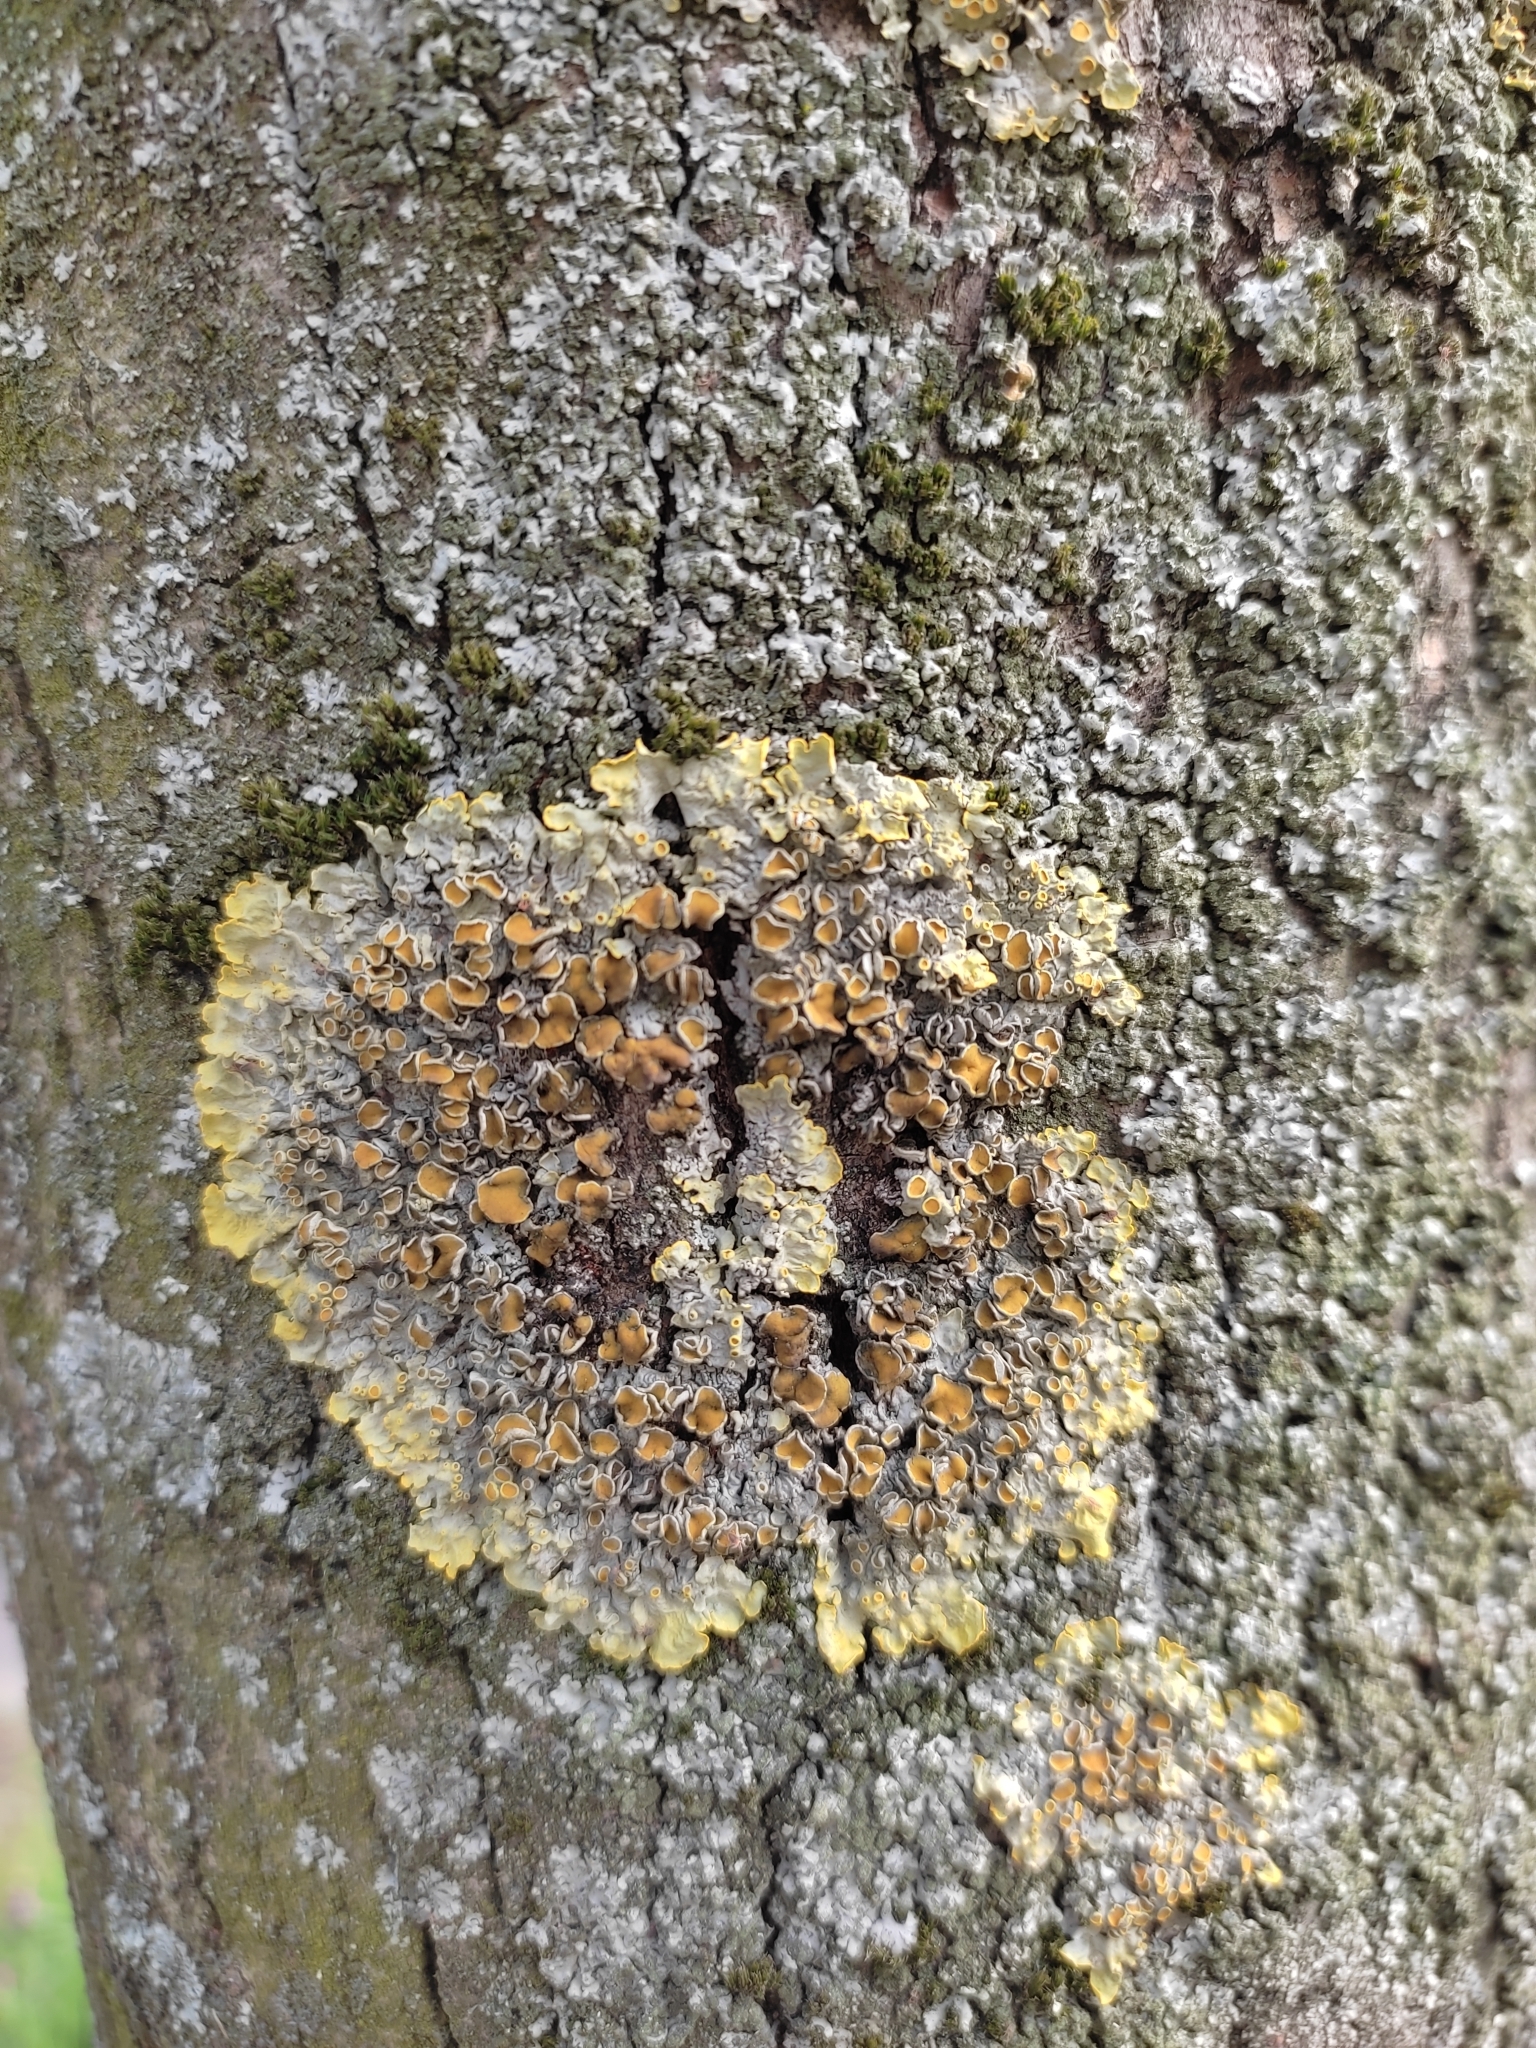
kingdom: Fungi
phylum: Ascomycota
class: Lecanoromycetes
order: Teloschistales
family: Teloschistaceae
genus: Xanthoria
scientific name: Xanthoria parietina
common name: Common orange lichen
